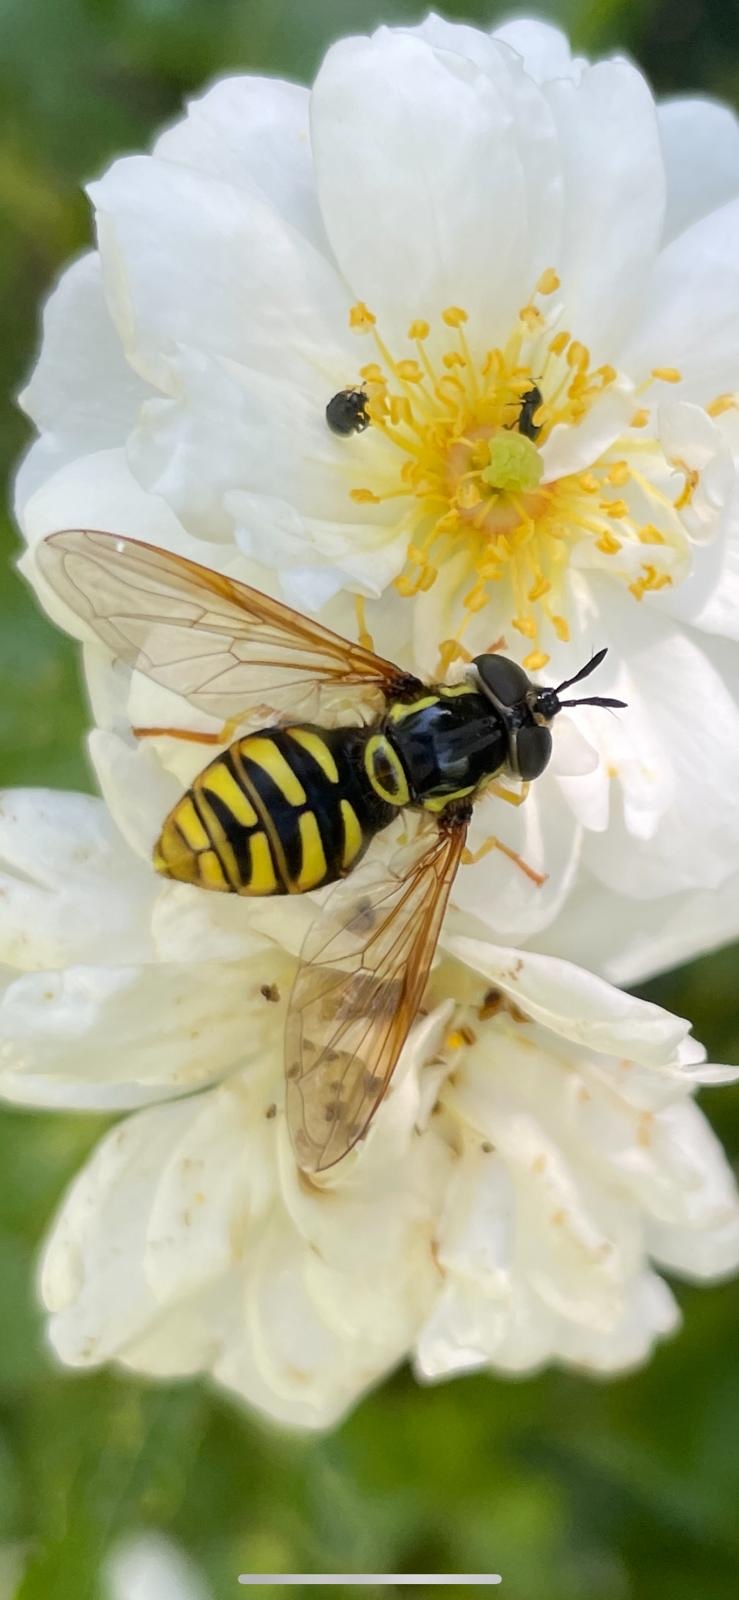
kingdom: Animalia
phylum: Arthropoda
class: Insecta
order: Diptera
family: Syrphidae
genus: Chrysotoxum
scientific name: Chrysotoxum cautum
